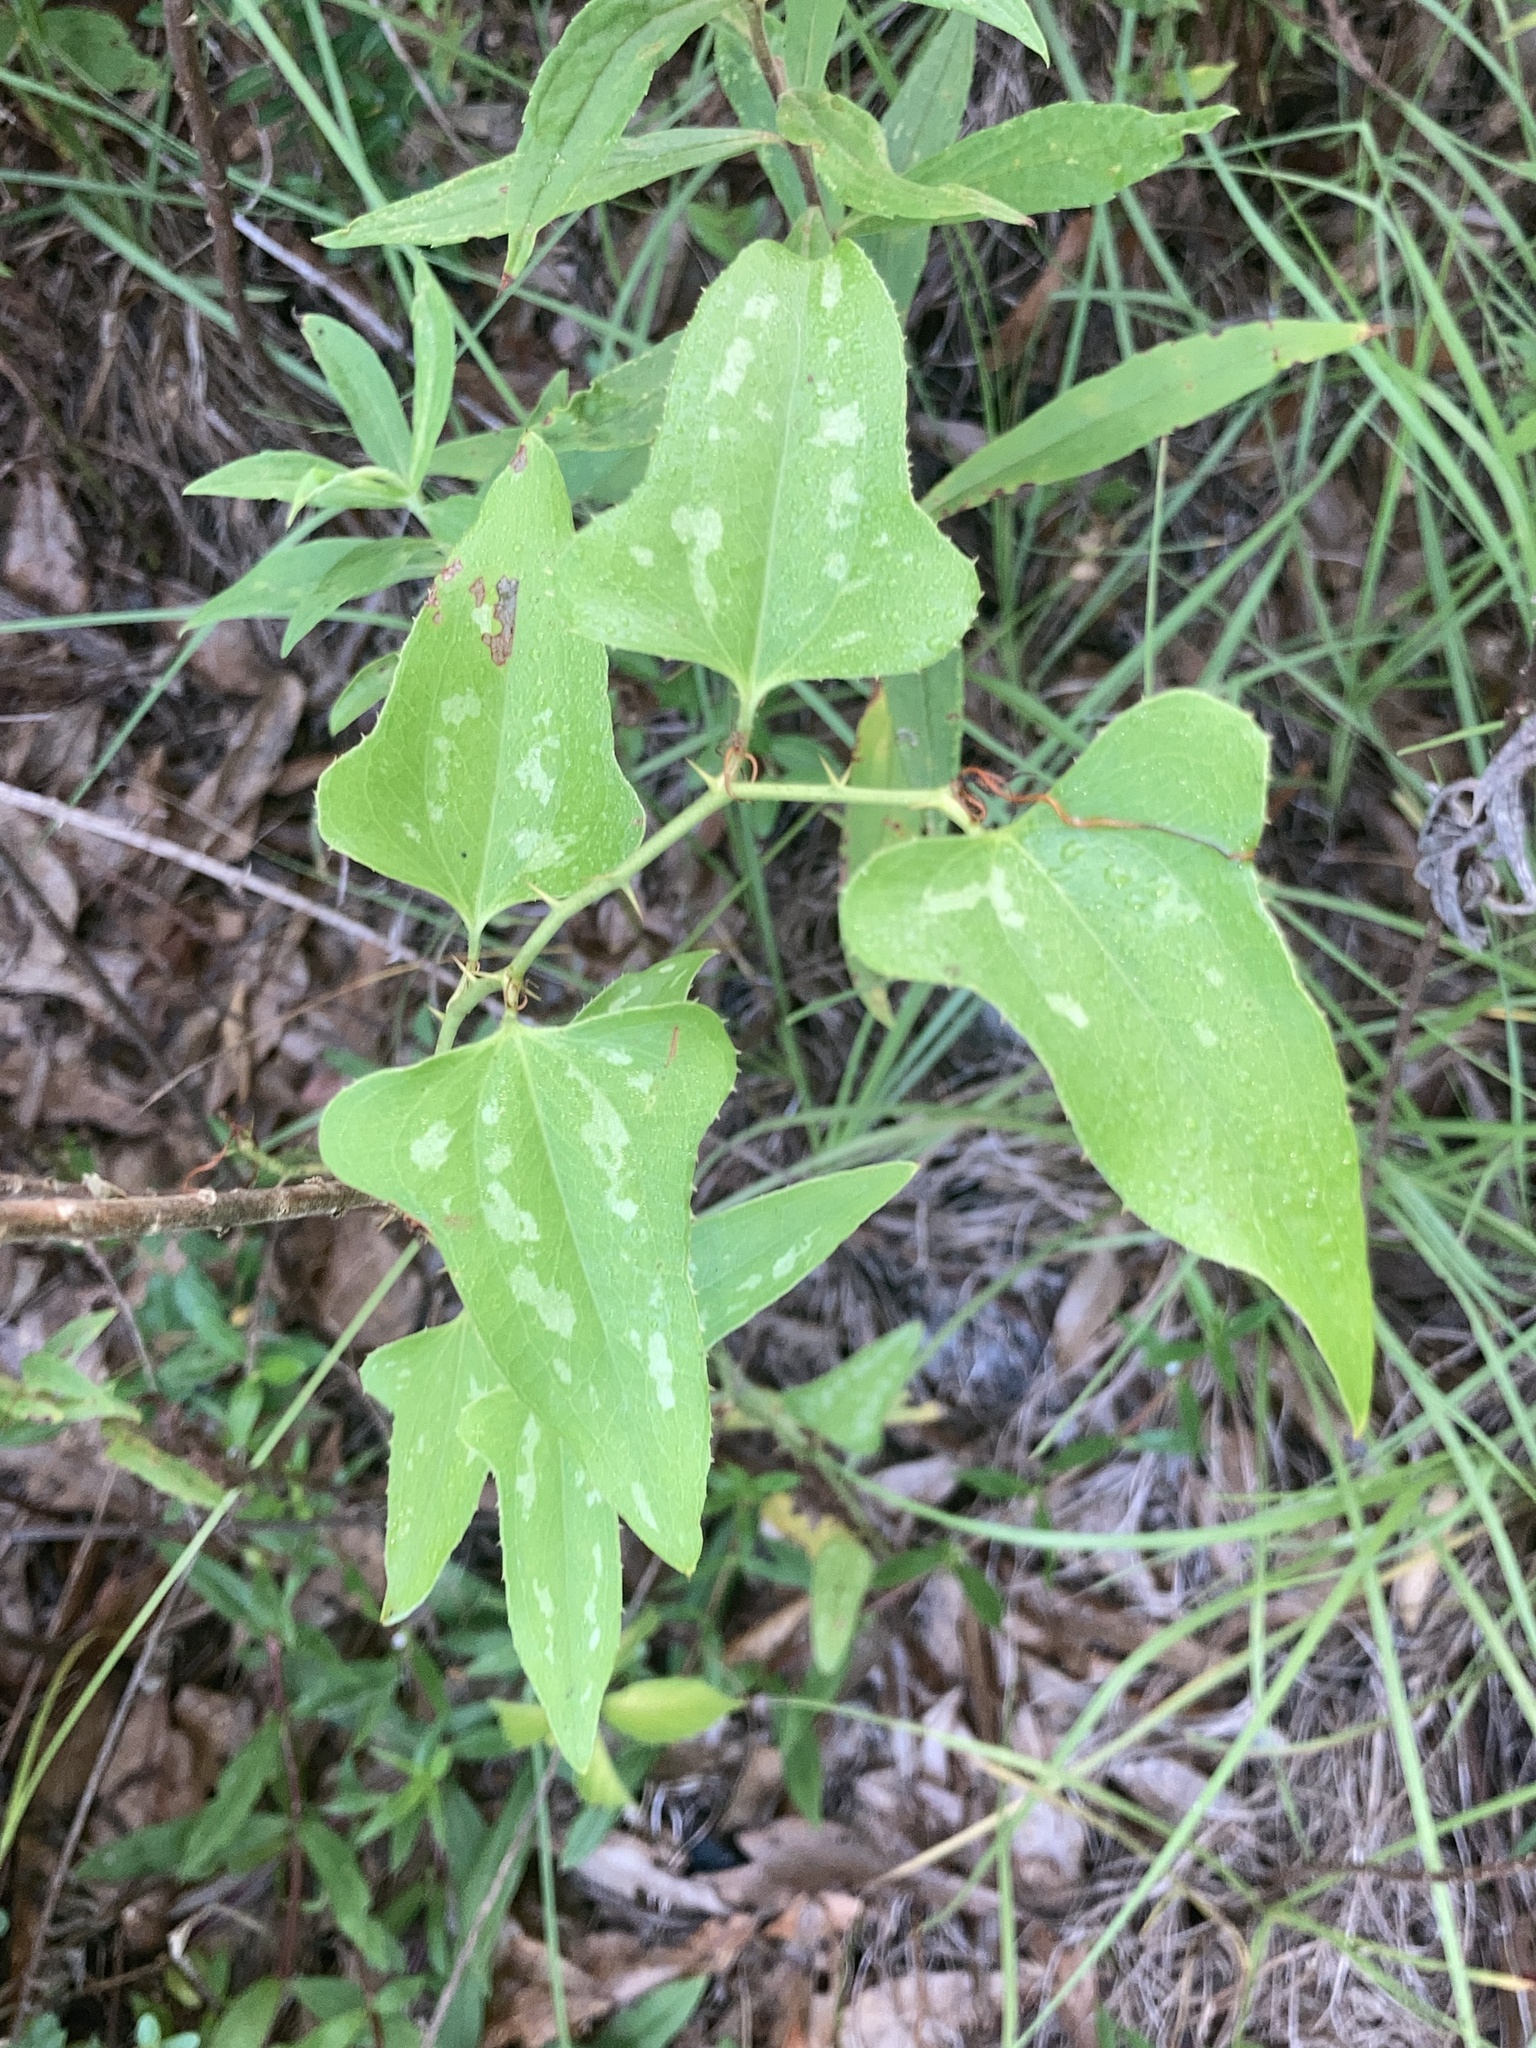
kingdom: Plantae
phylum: Tracheophyta
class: Liliopsida
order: Liliales
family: Smilacaceae
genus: Smilax
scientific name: Smilax bona-nox
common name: Catbrier
